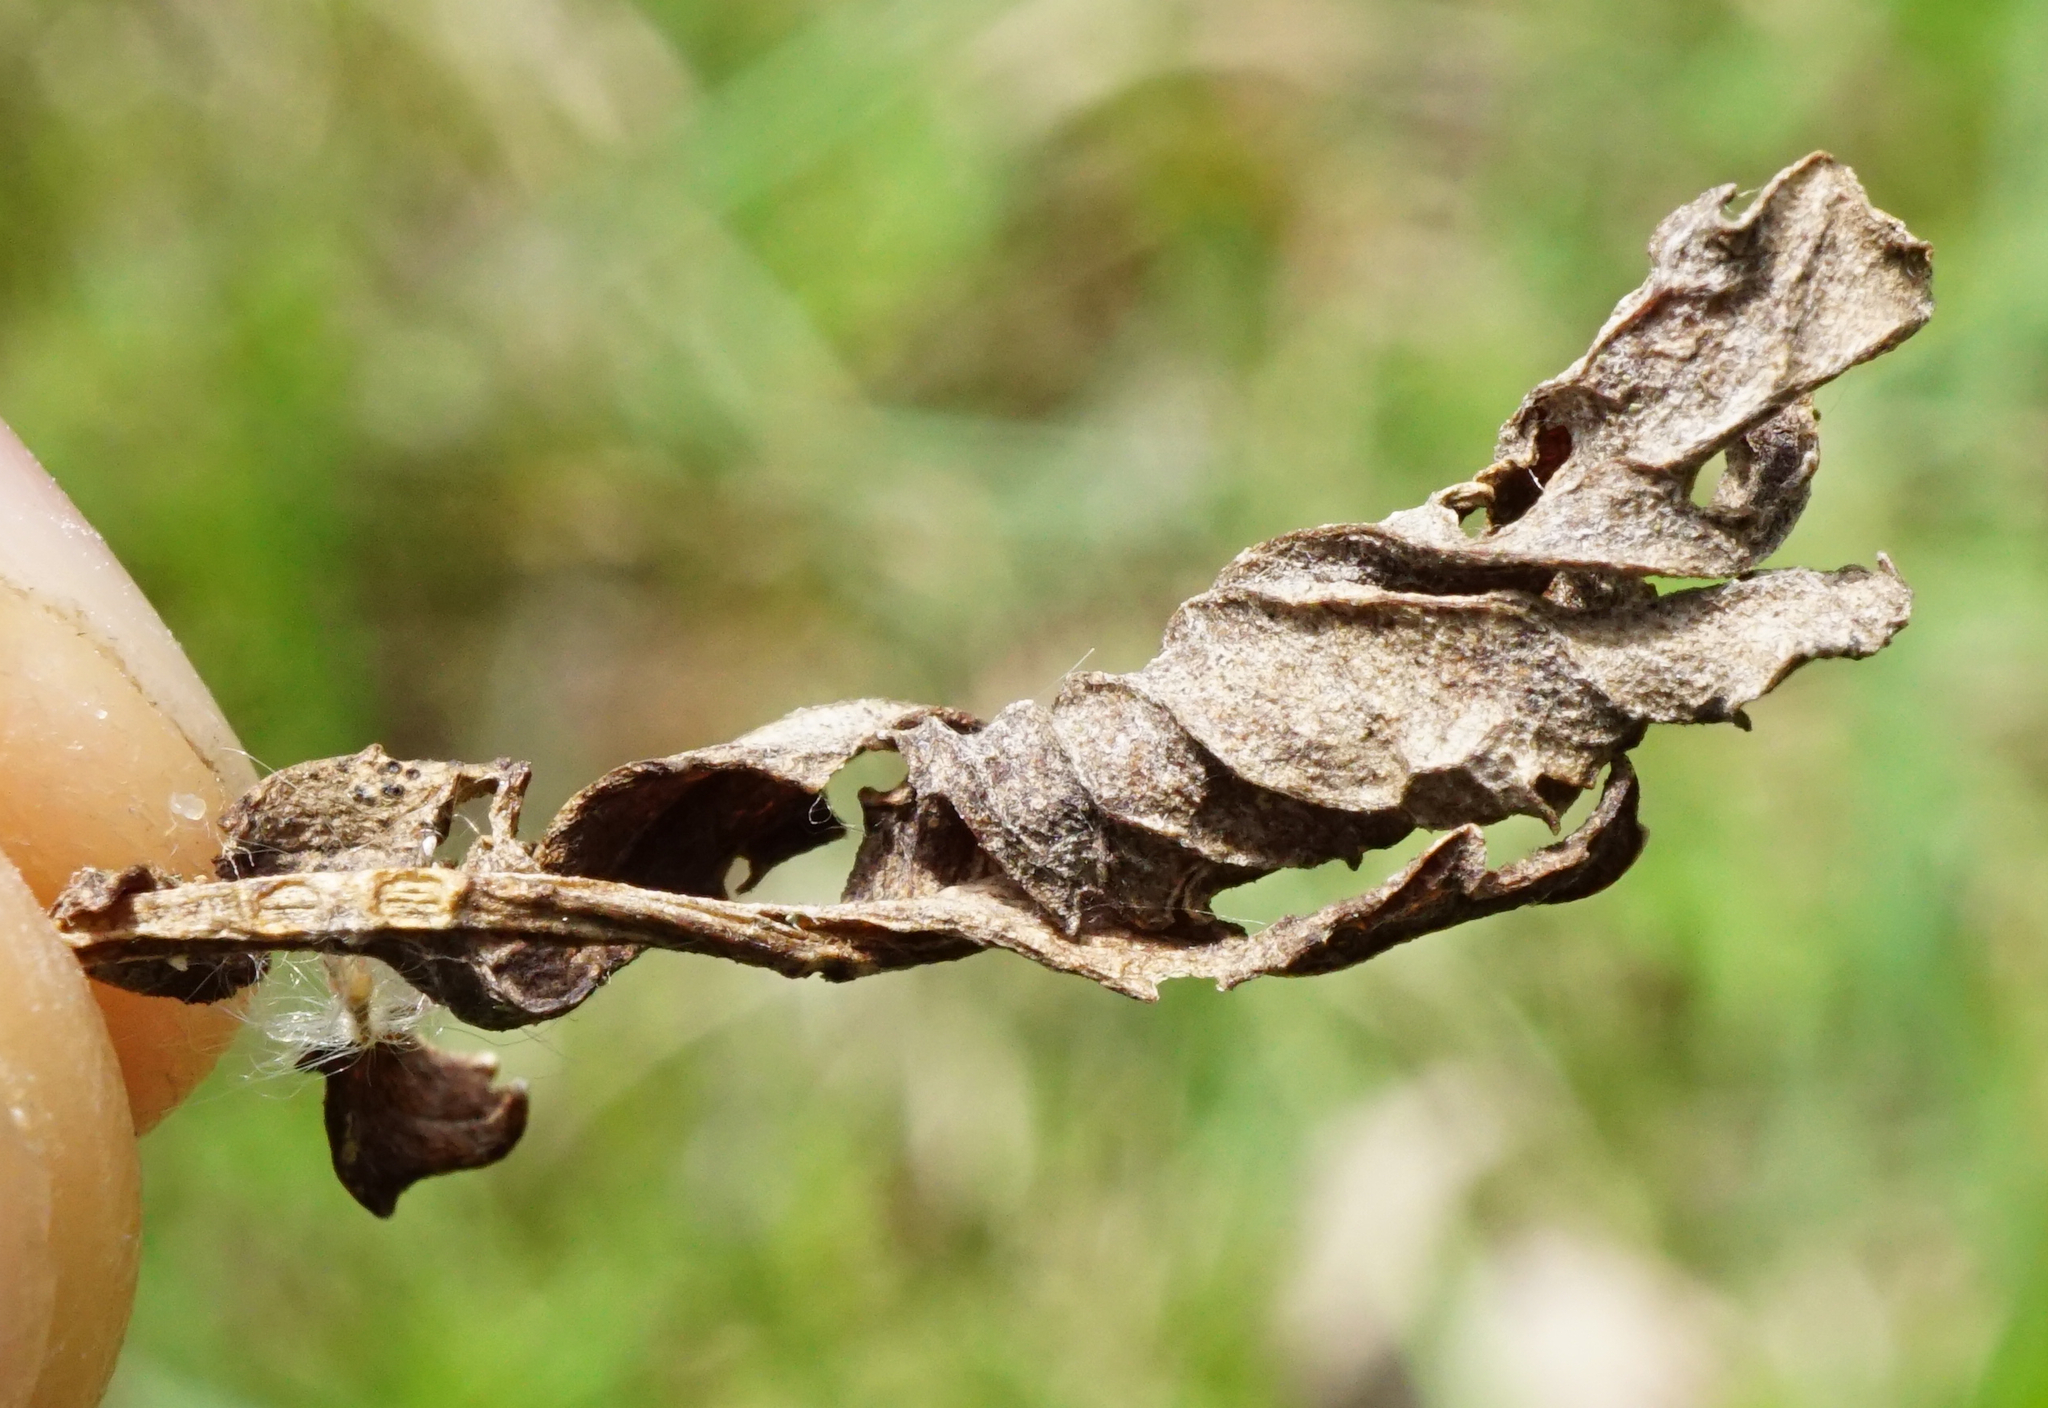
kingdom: Plantae
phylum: Tracheophyta
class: Magnoliopsida
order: Asterales
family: Asteraceae
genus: Cirsium
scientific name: Cirsium arvense
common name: Creeping thistle
